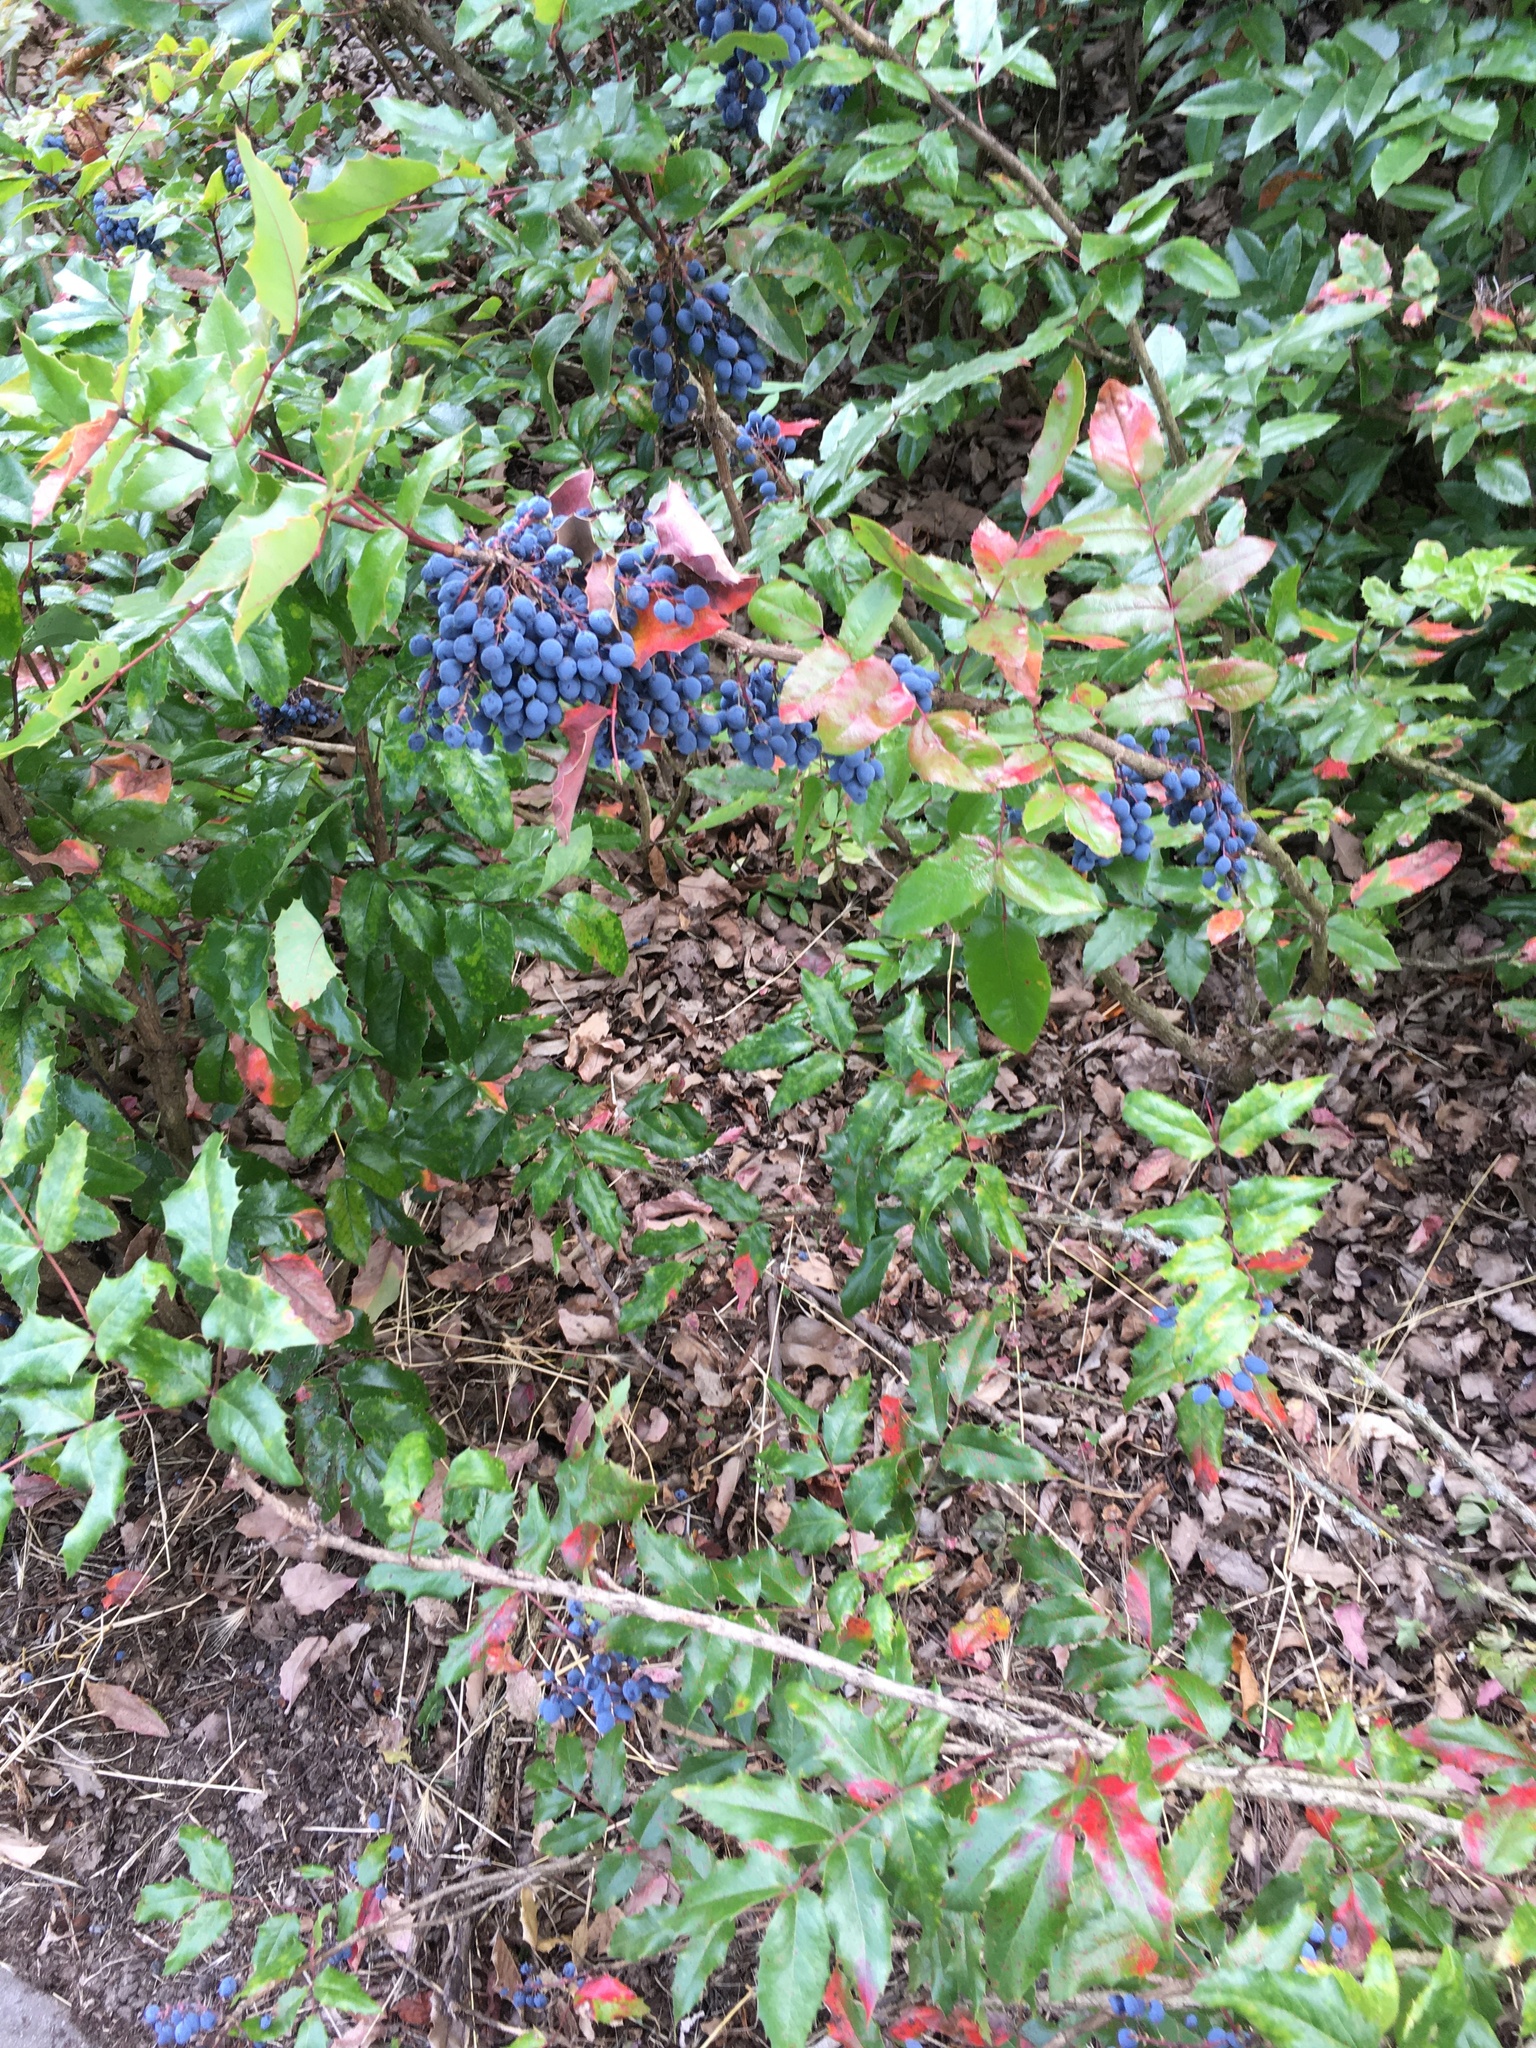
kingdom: Plantae
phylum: Tracheophyta
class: Magnoliopsida
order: Ranunculales
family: Berberidaceae
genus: Mahonia
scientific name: Mahonia aquifolium
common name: Oregon-grape
